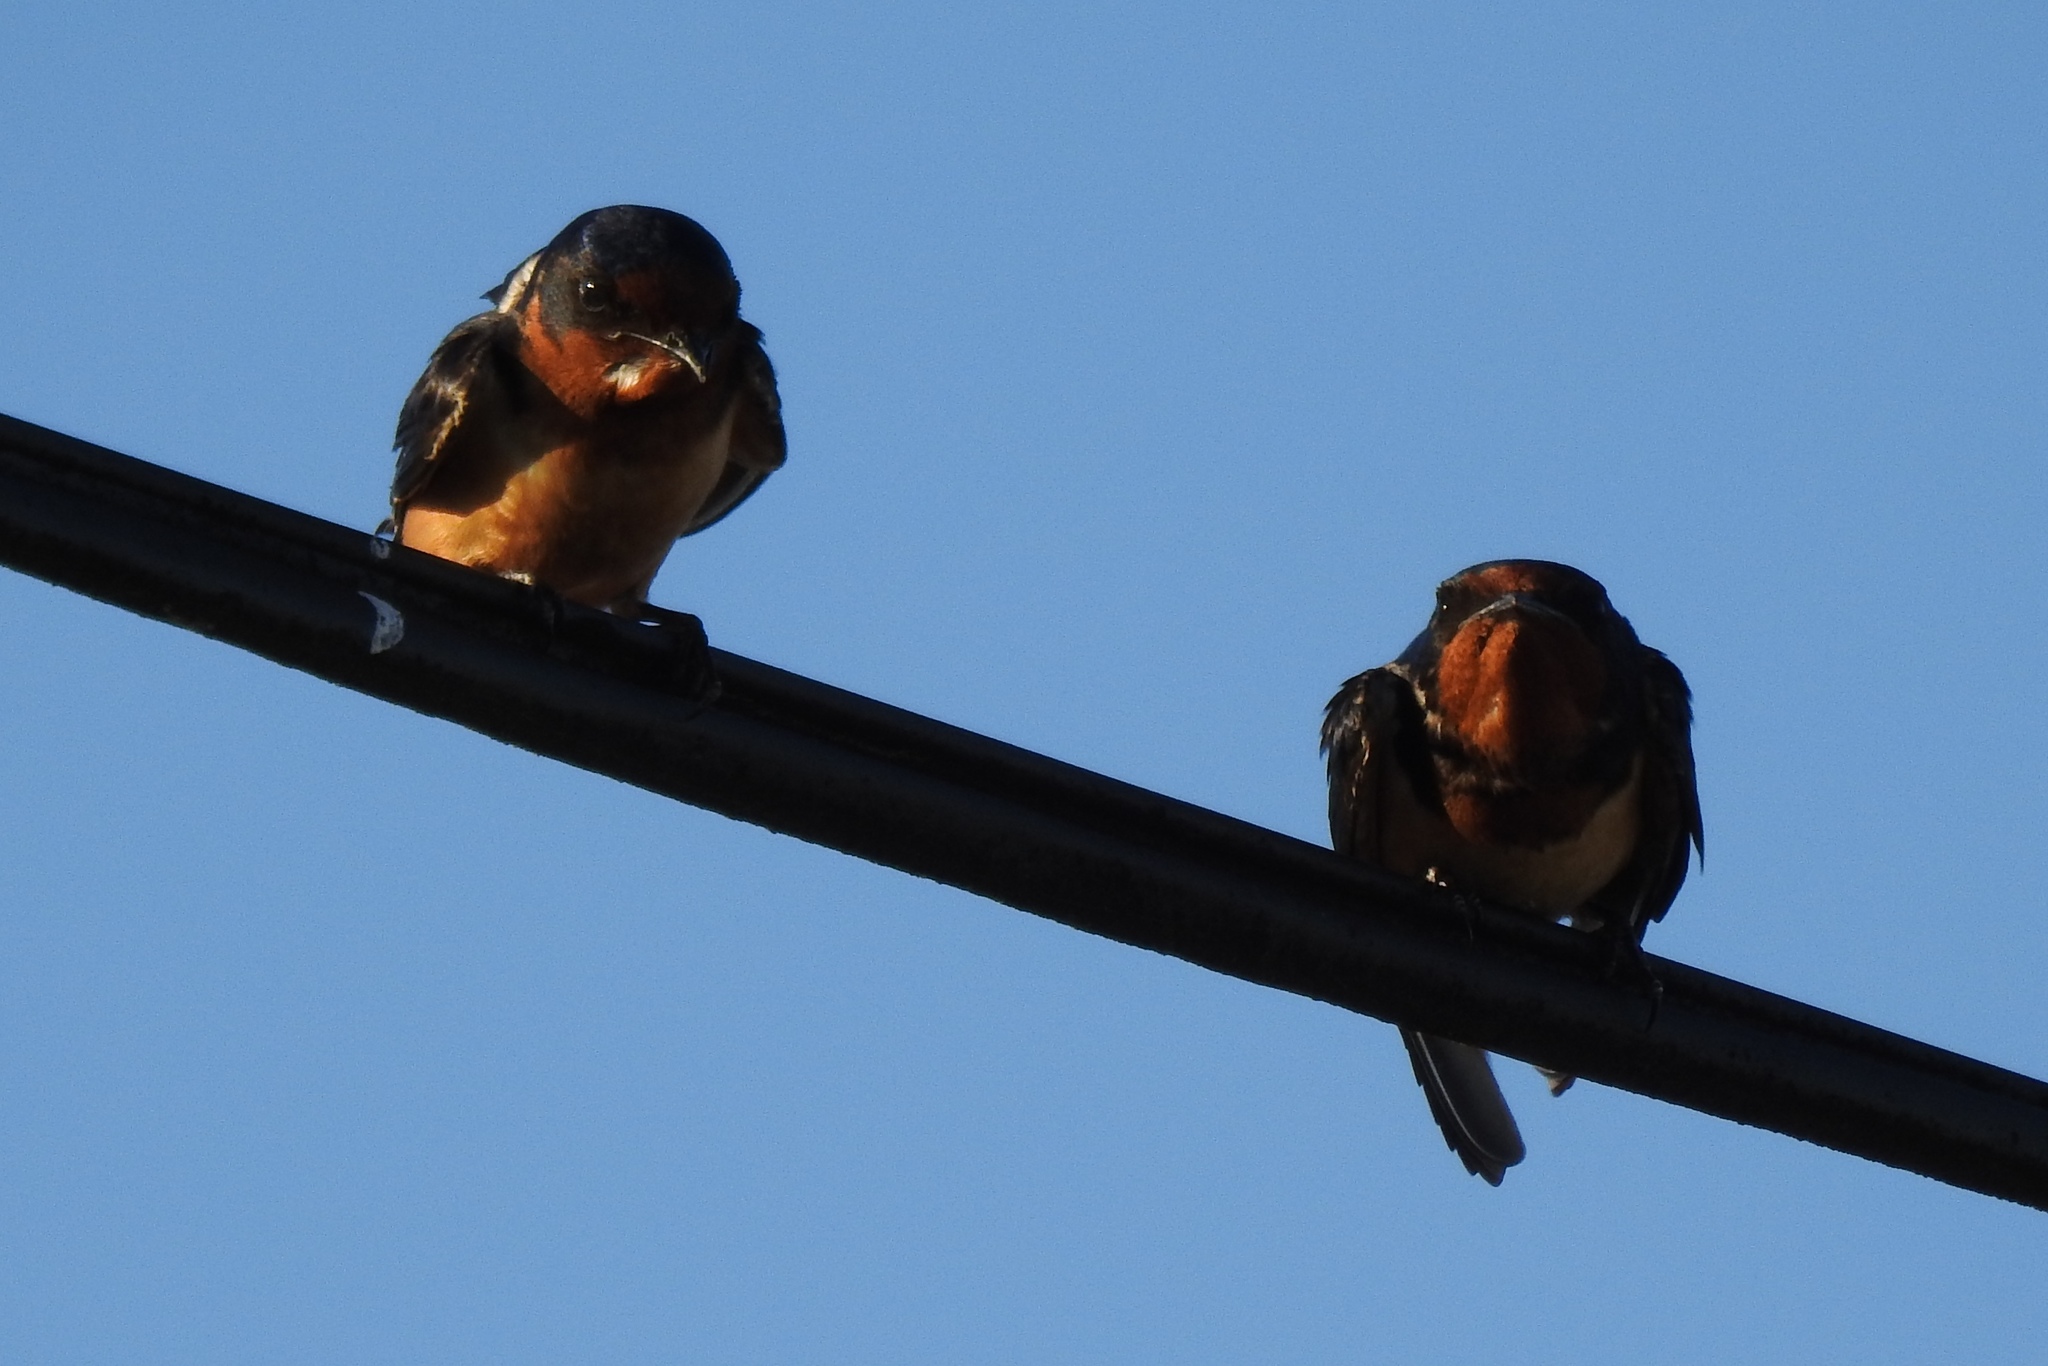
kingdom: Animalia
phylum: Chordata
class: Aves
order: Passeriformes
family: Hirundinidae
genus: Hirundo
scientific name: Hirundo rustica
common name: Barn swallow
